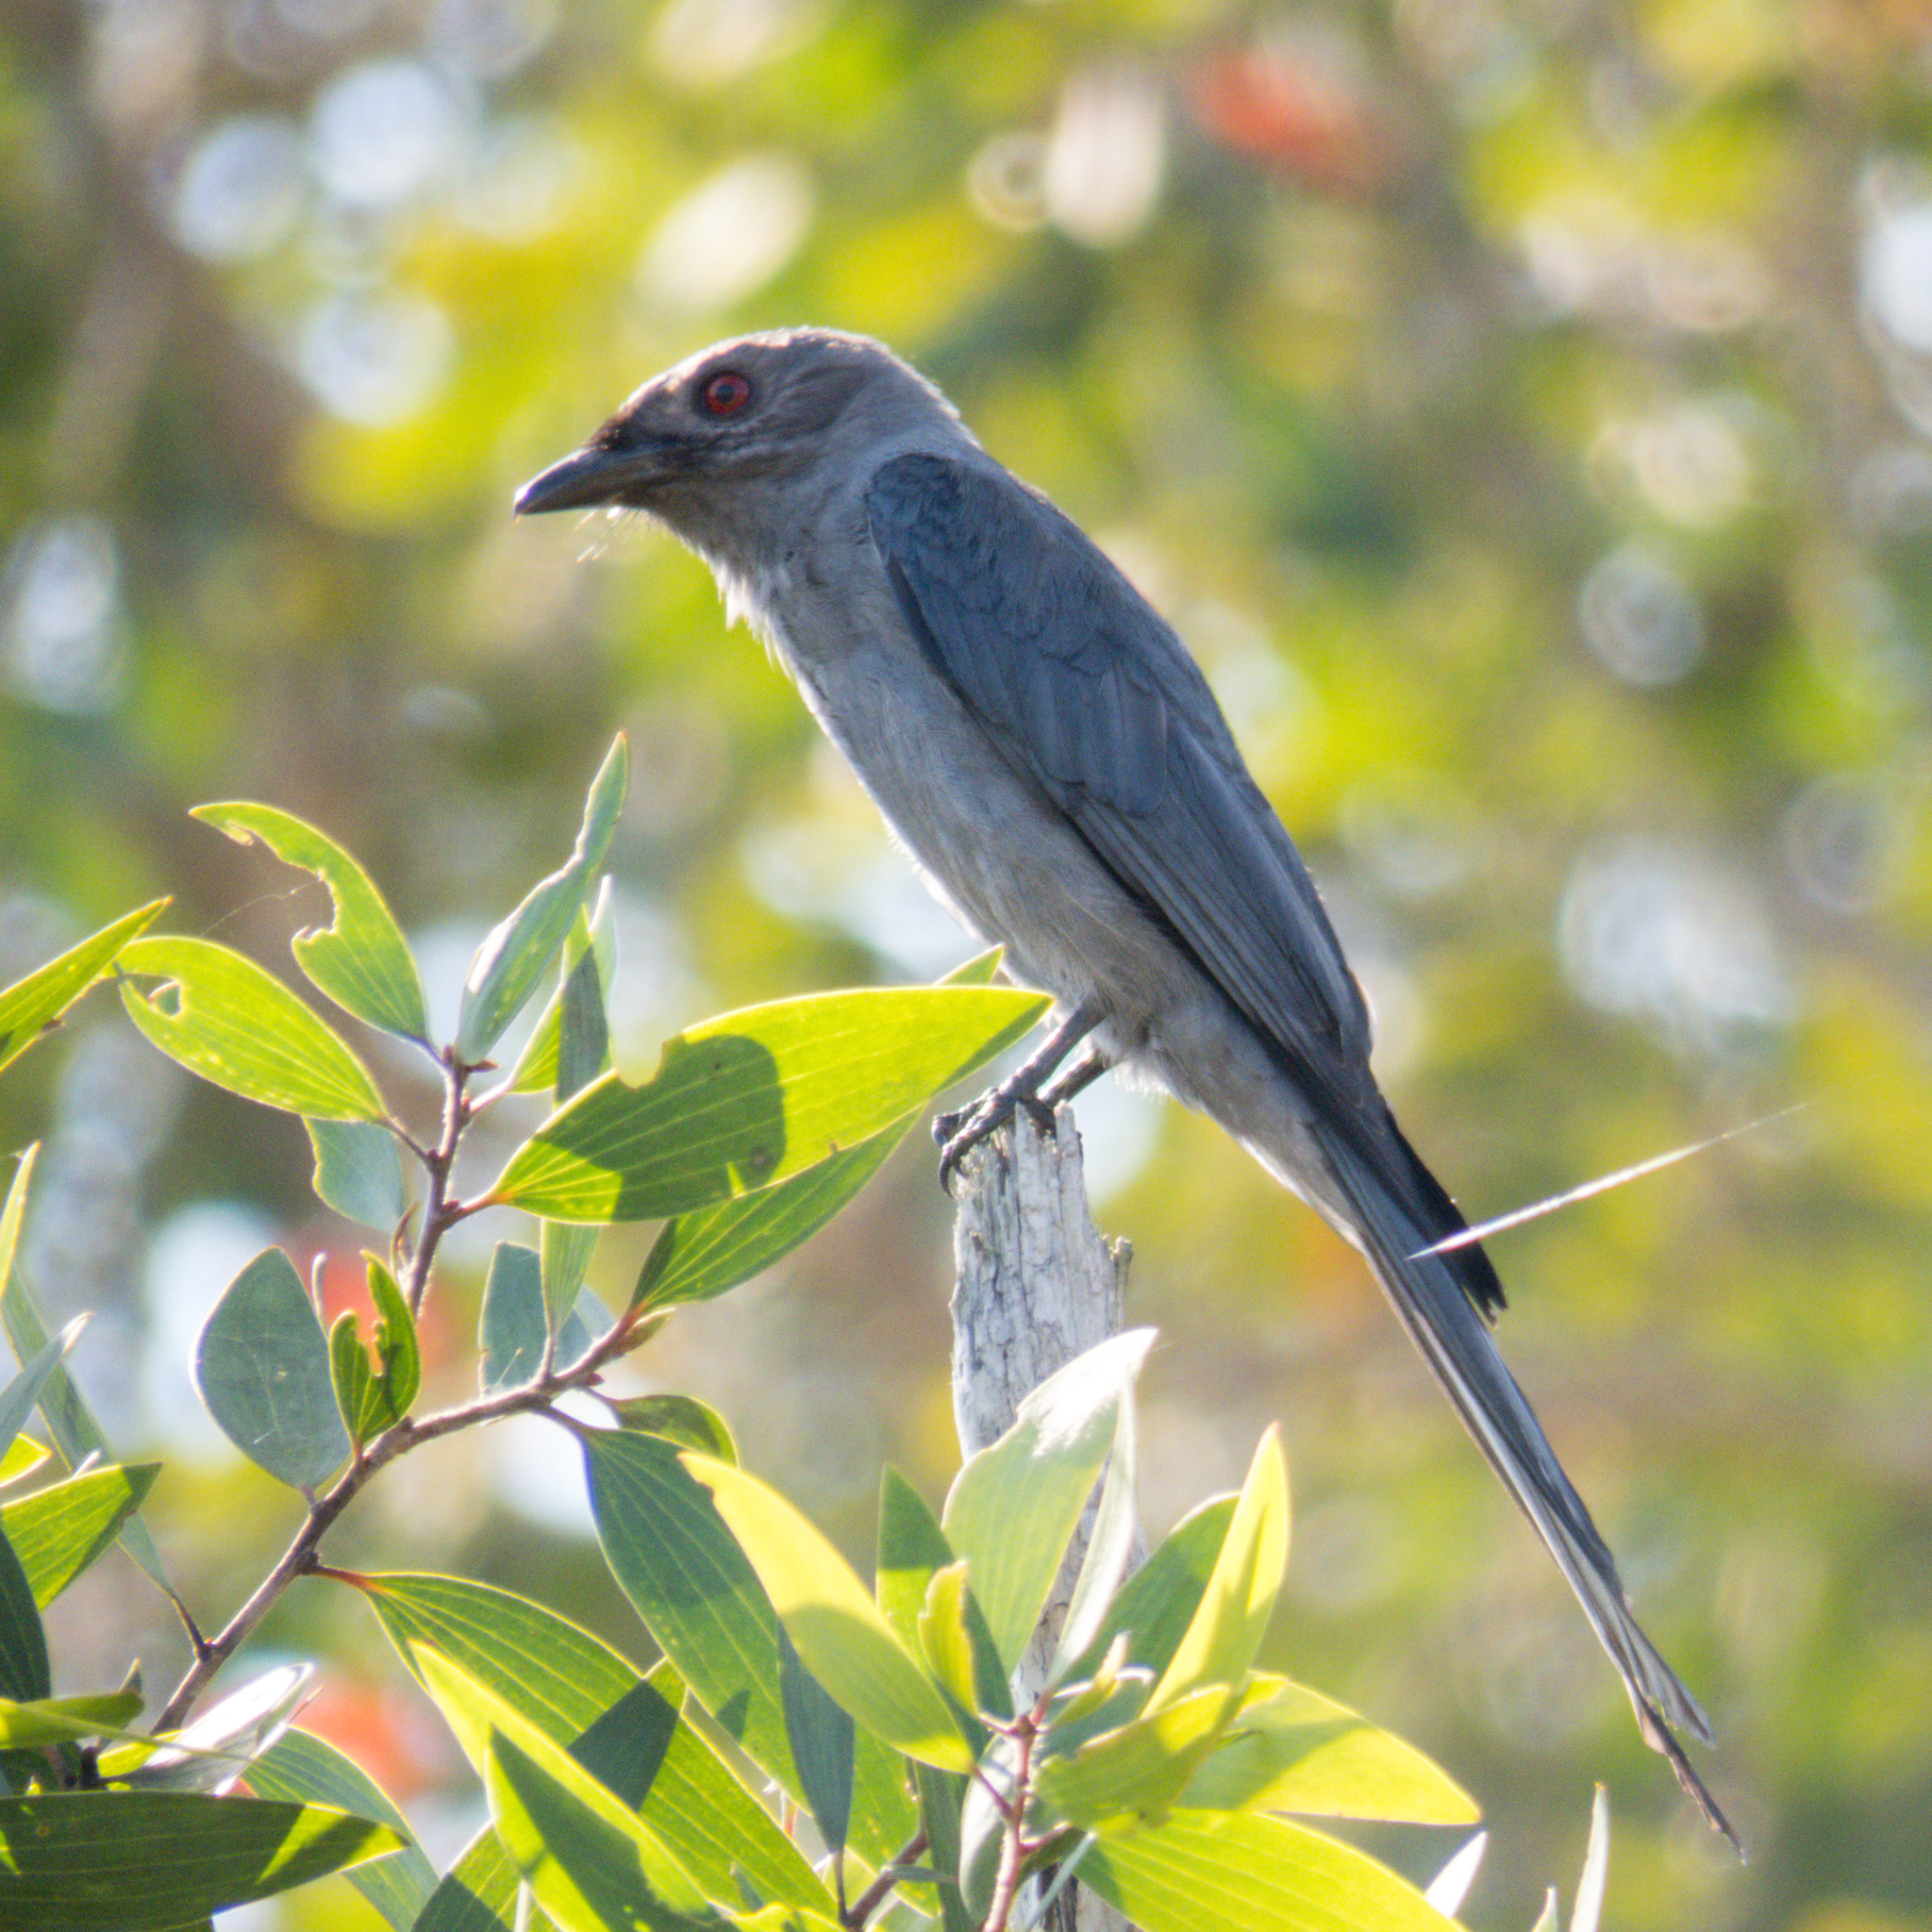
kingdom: Animalia
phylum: Chordata
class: Aves
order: Passeriformes
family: Dicruridae
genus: Dicrurus
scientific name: Dicrurus leucophaeus
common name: Ashy drongo
